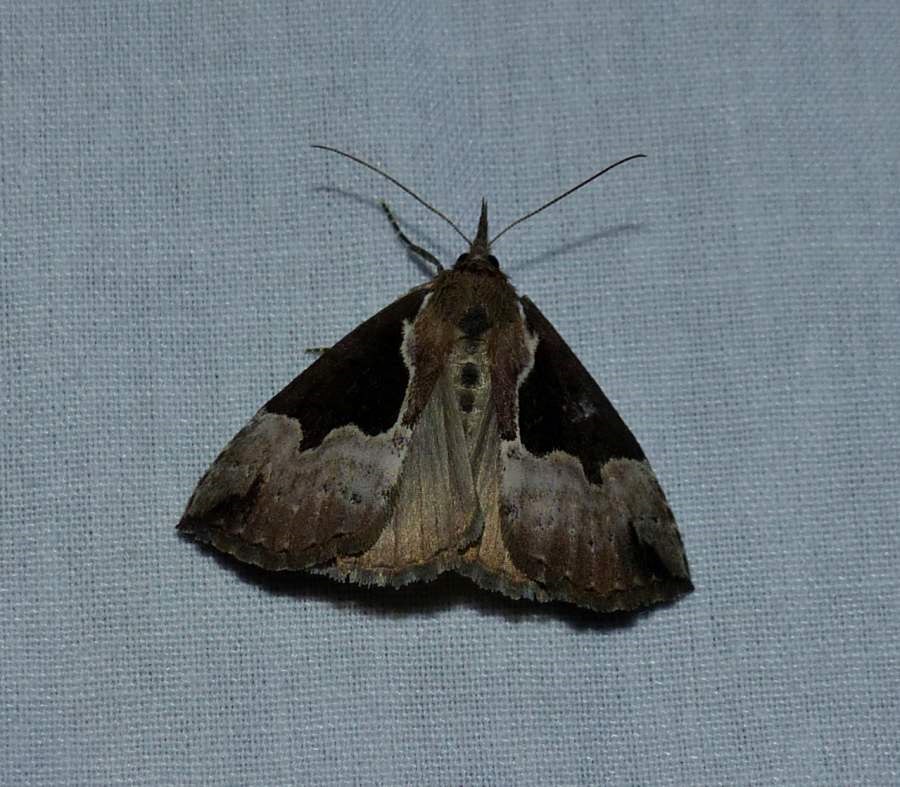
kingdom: Animalia
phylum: Arthropoda
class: Insecta
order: Lepidoptera
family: Erebidae
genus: Hypena
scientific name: Hypena baltimoralis
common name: Baltimore snout
